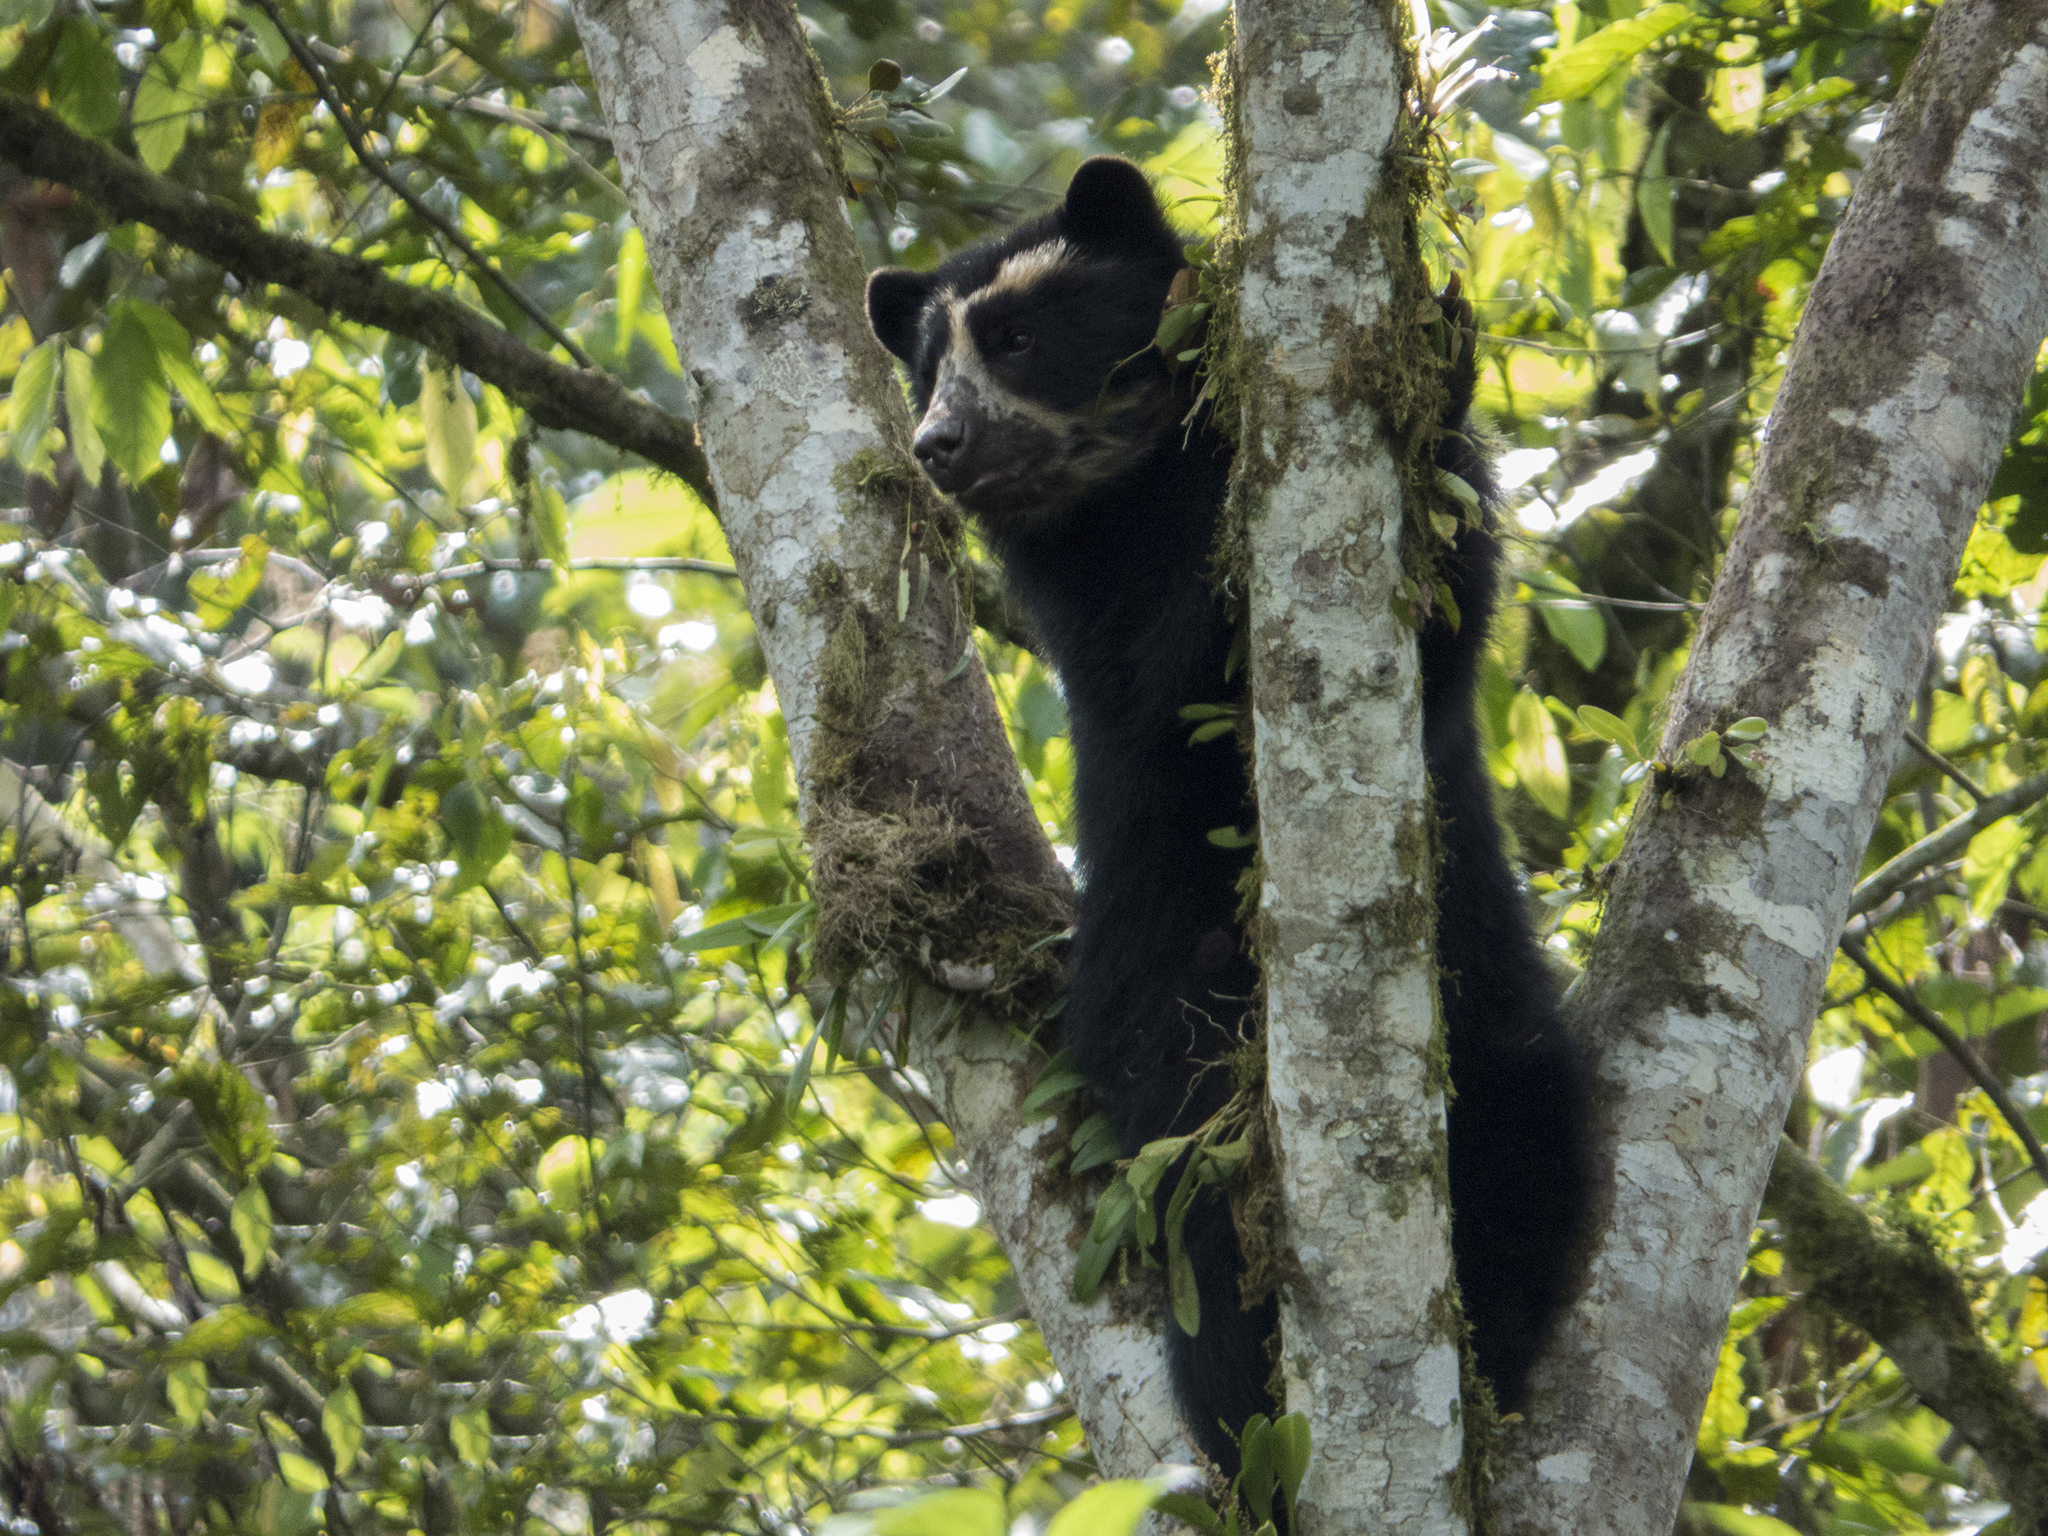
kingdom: Animalia
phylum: Chordata
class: Mammalia
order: Carnivora
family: Ursidae
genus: Tremarctos
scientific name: Tremarctos ornatus
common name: Spectacled bear
